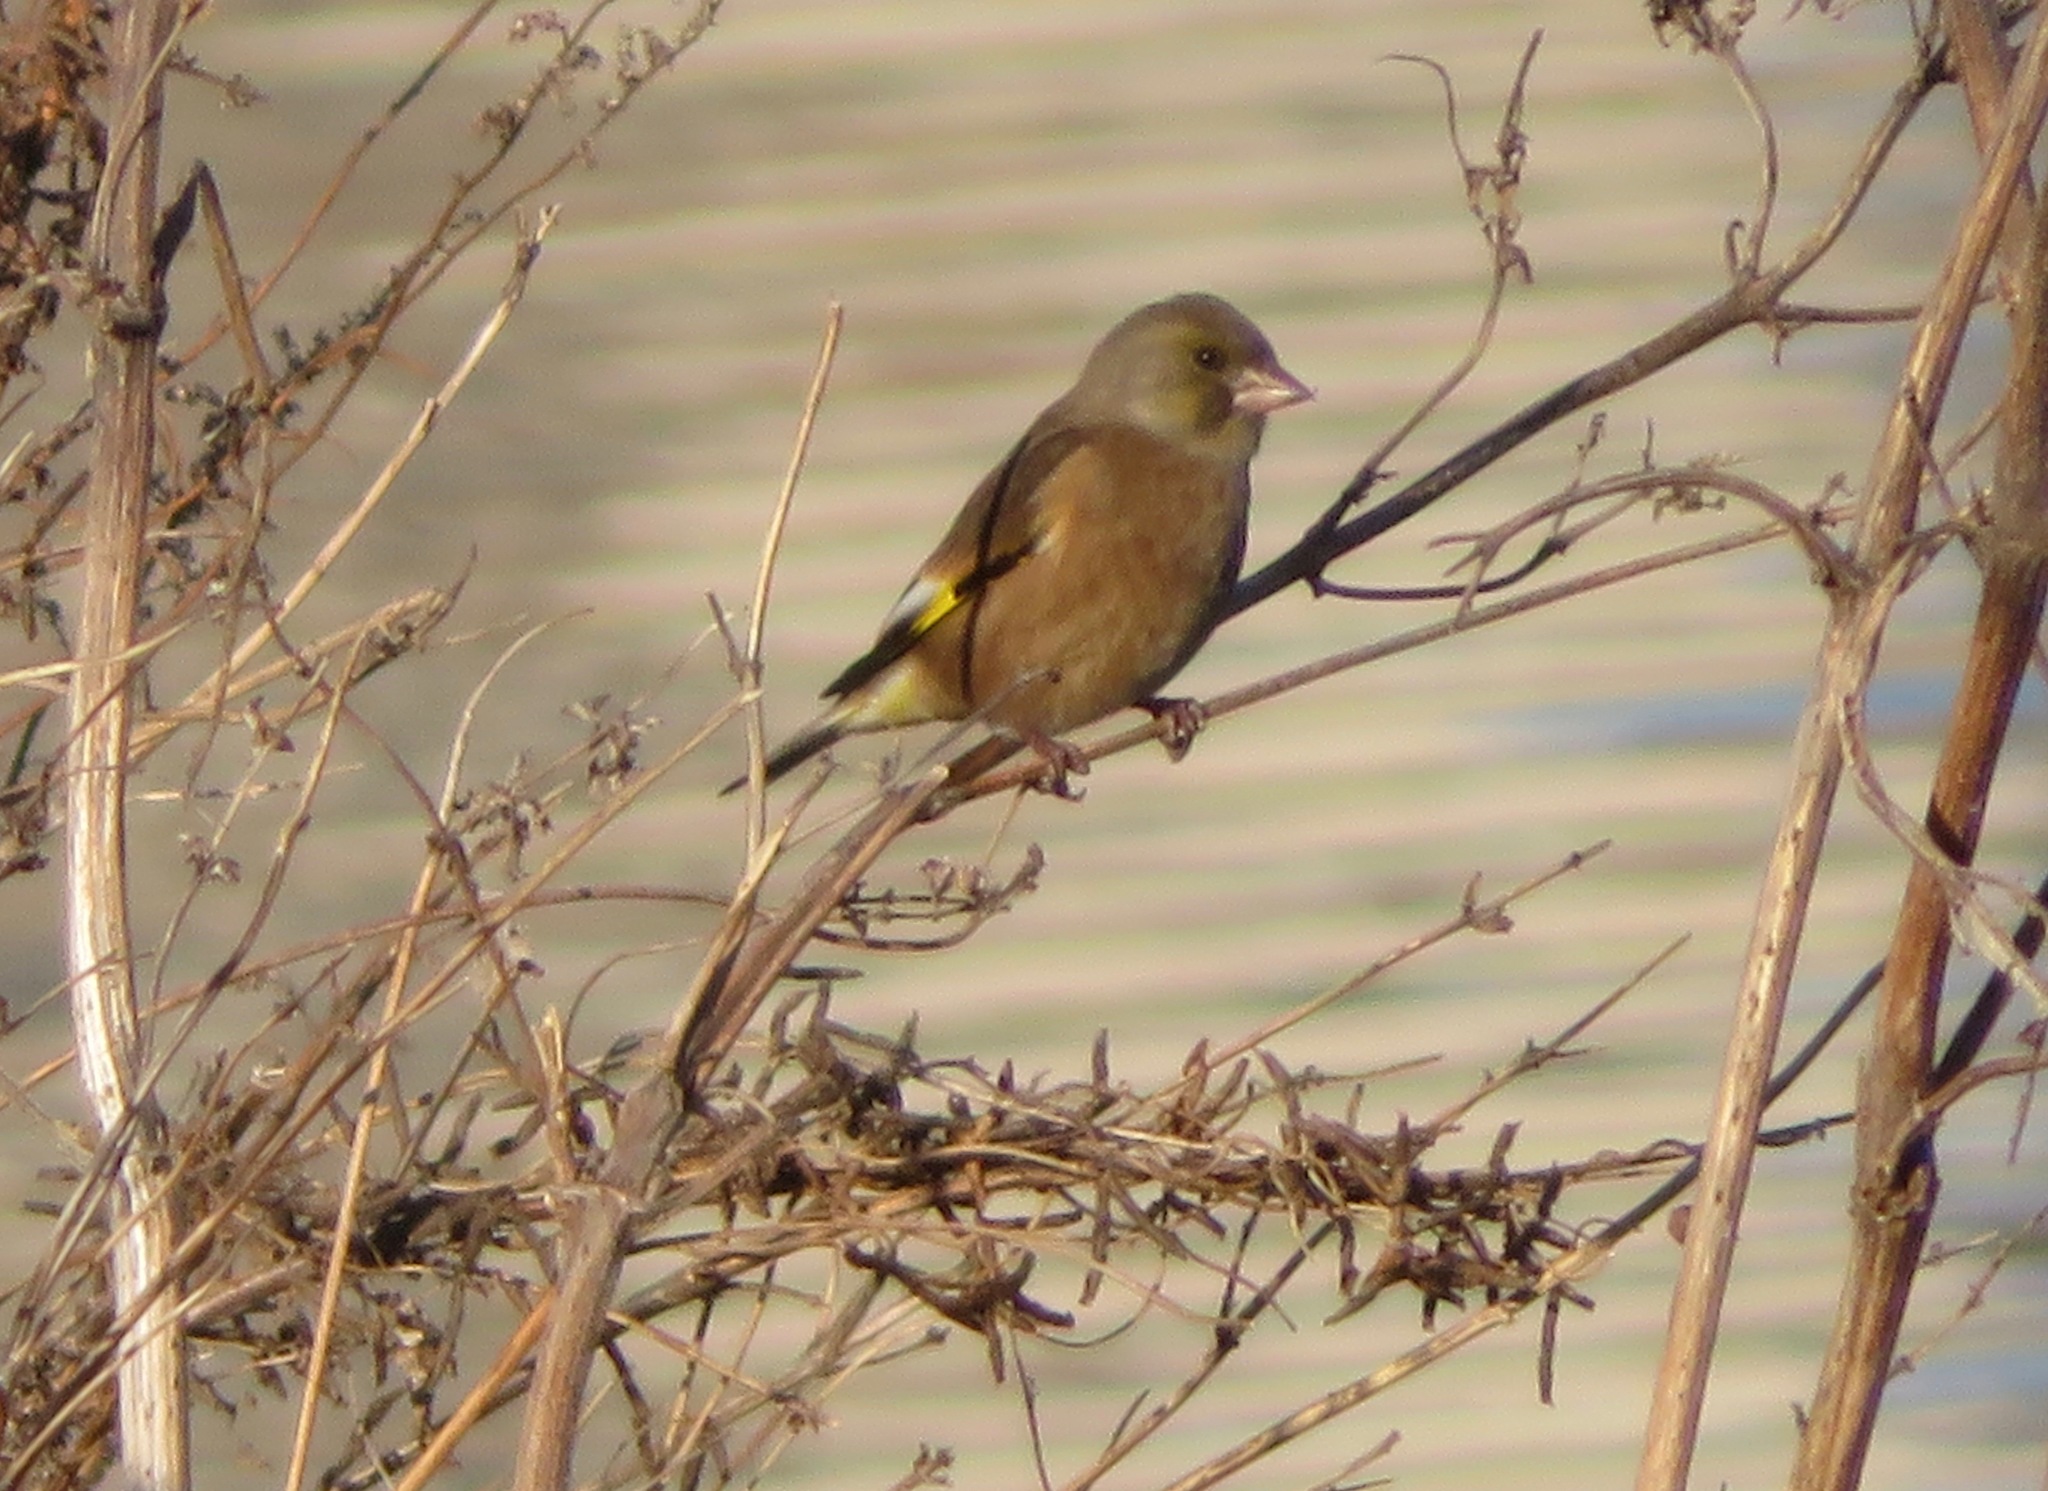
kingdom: Plantae
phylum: Tracheophyta
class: Liliopsida
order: Poales
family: Poaceae
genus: Chloris
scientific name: Chloris sinica
